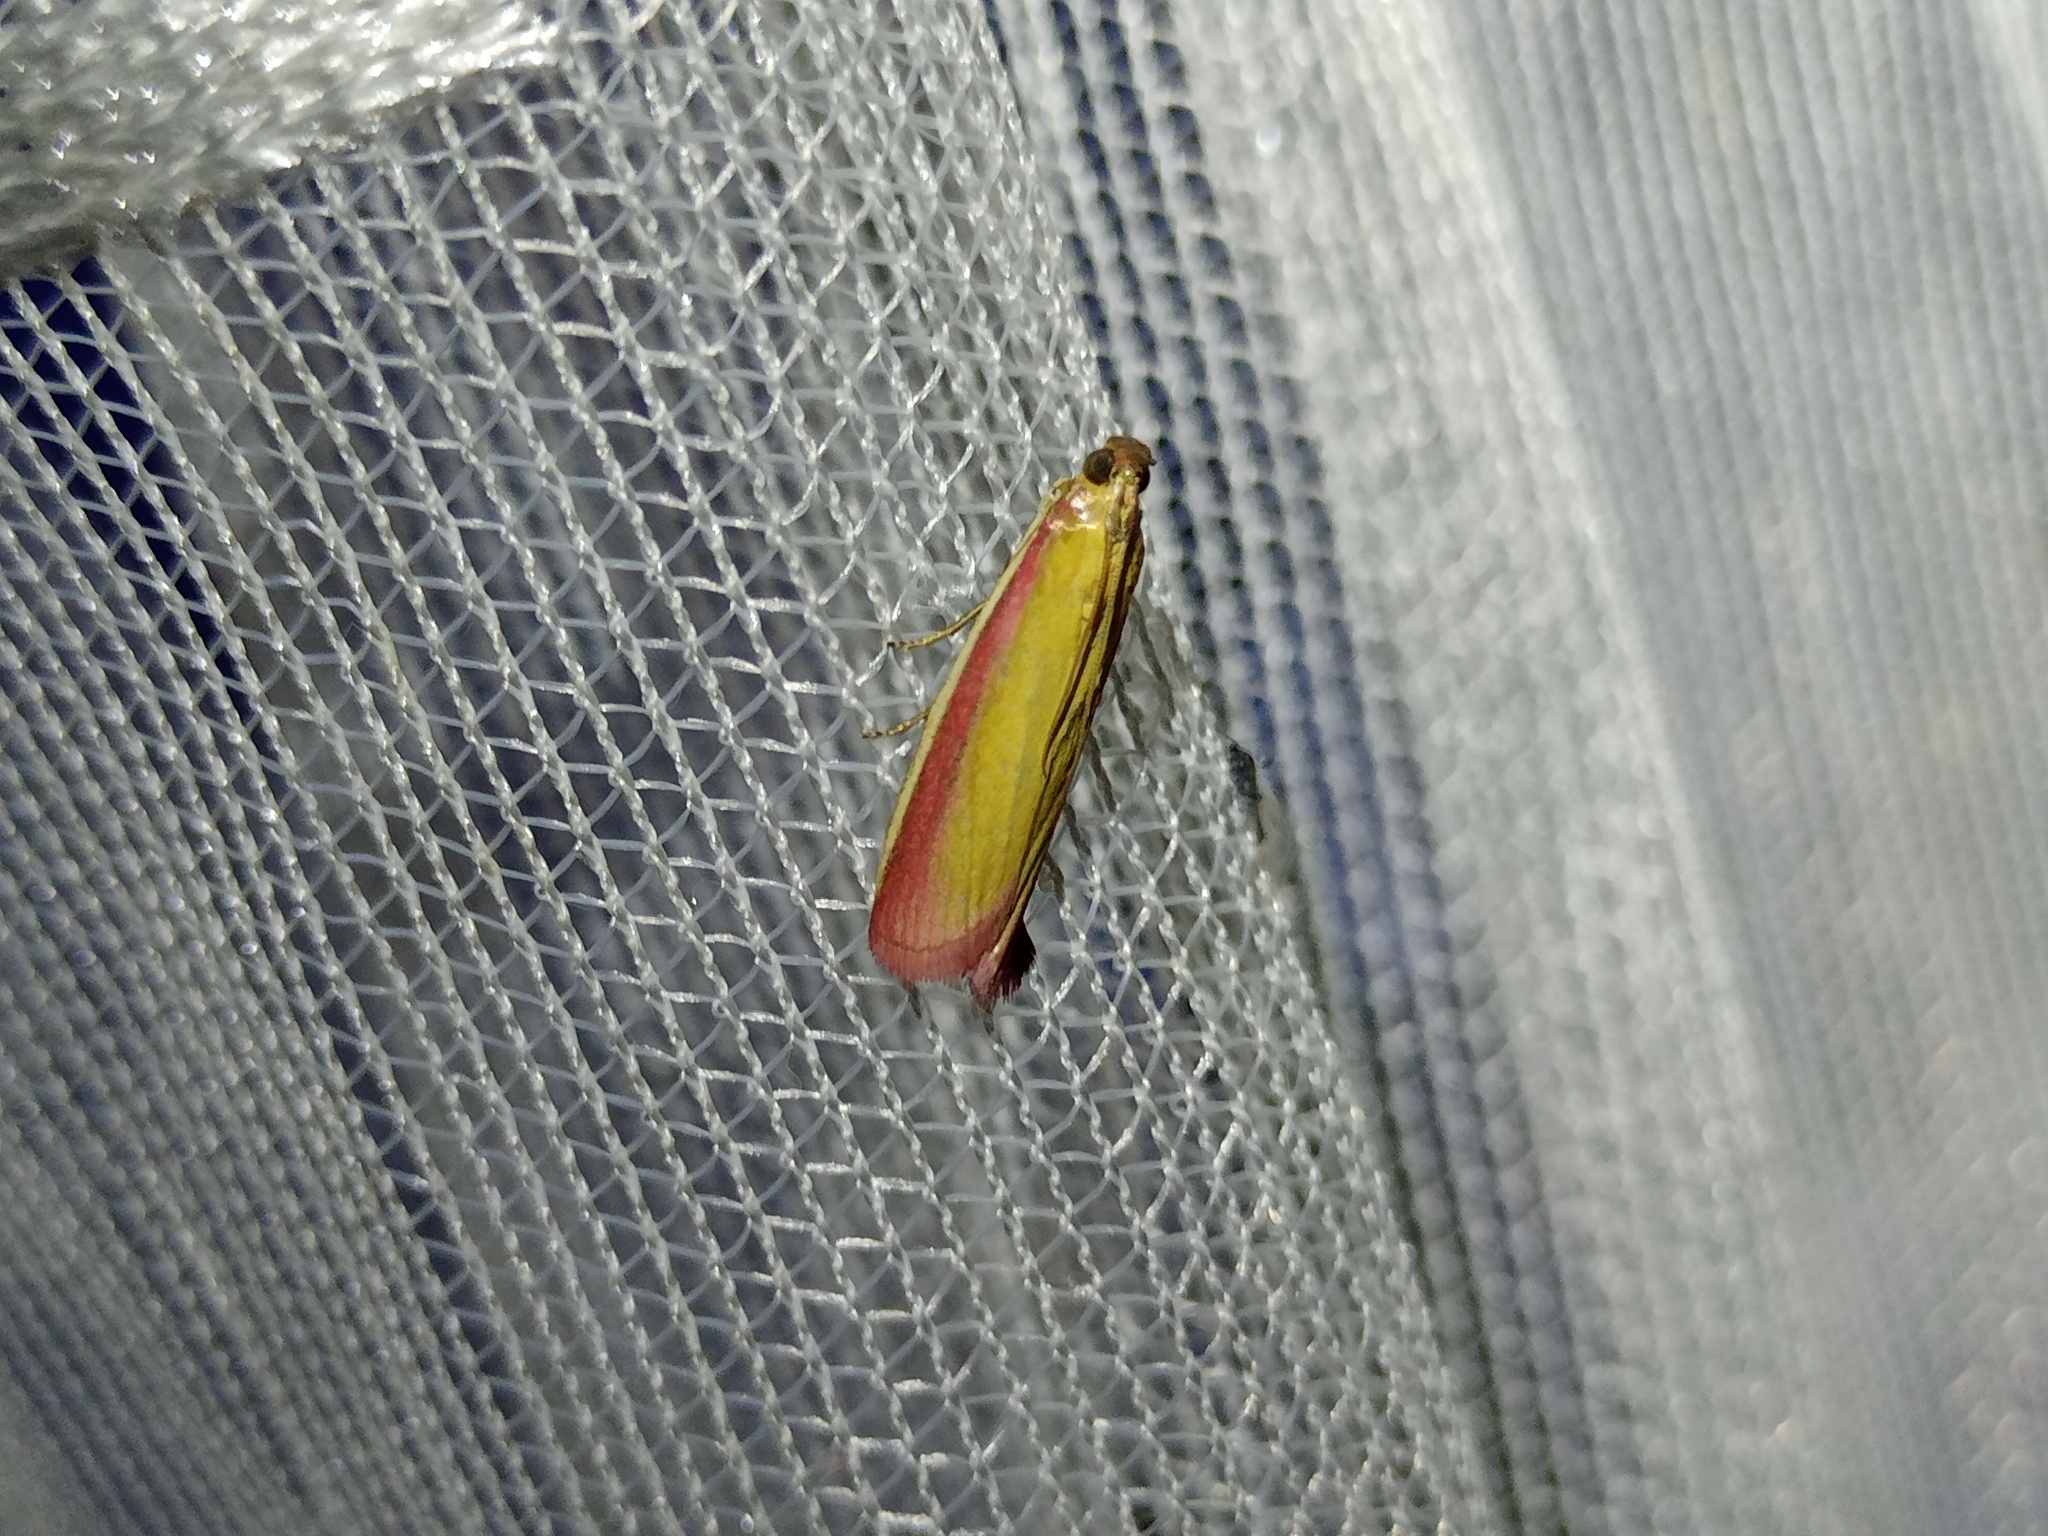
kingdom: Animalia
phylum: Arthropoda
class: Insecta
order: Lepidoptera
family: Pyralidae
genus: Oncocera
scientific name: Oncocera semirubella
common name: Rosy-striped knot-horn
